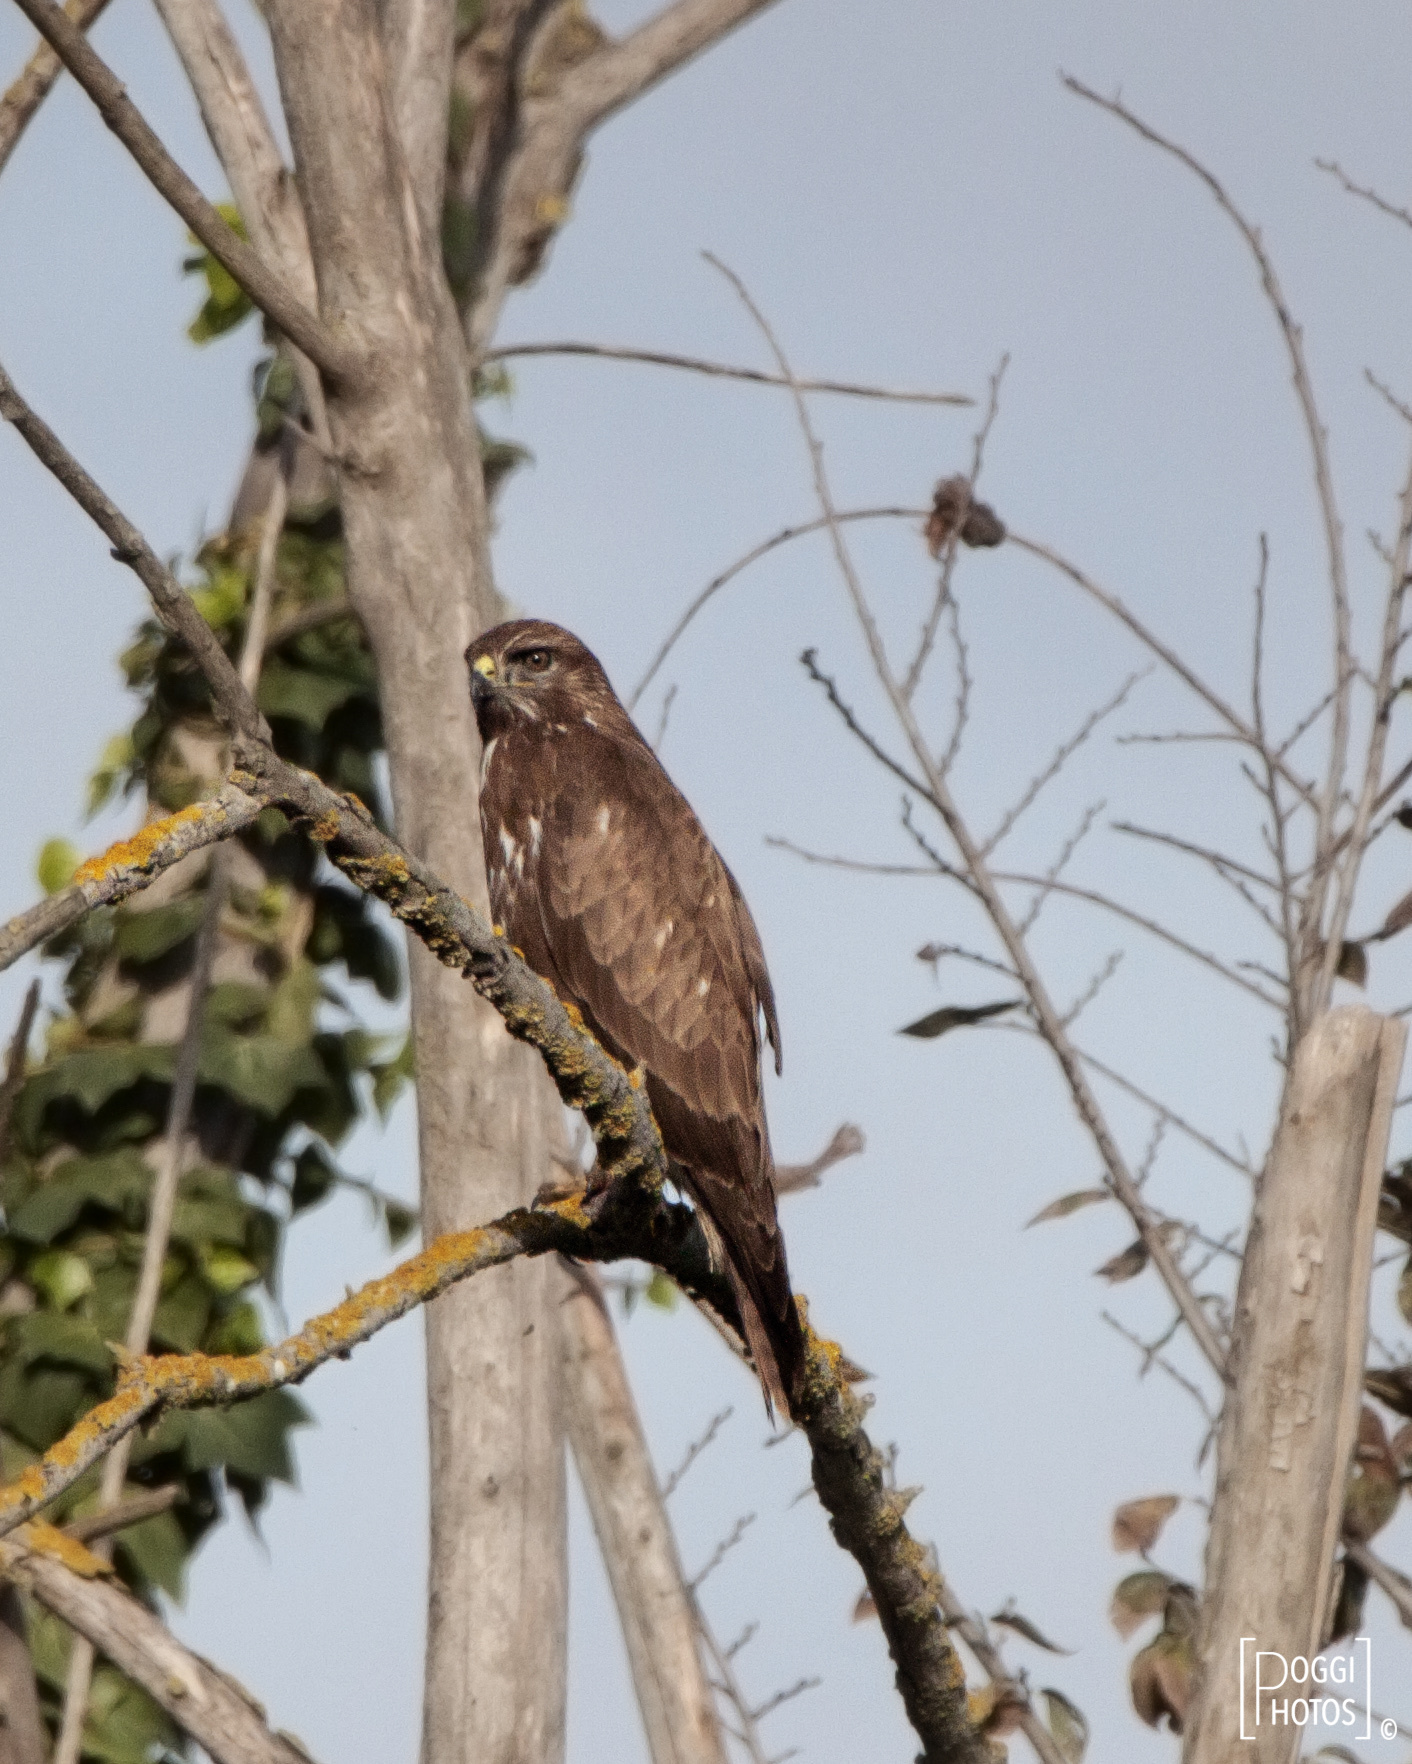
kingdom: Animalia
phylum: Chordata
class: Aves
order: Accipitriformes
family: Accipitridae
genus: Buteo
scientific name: Buteo buteo
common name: Common buzzard
